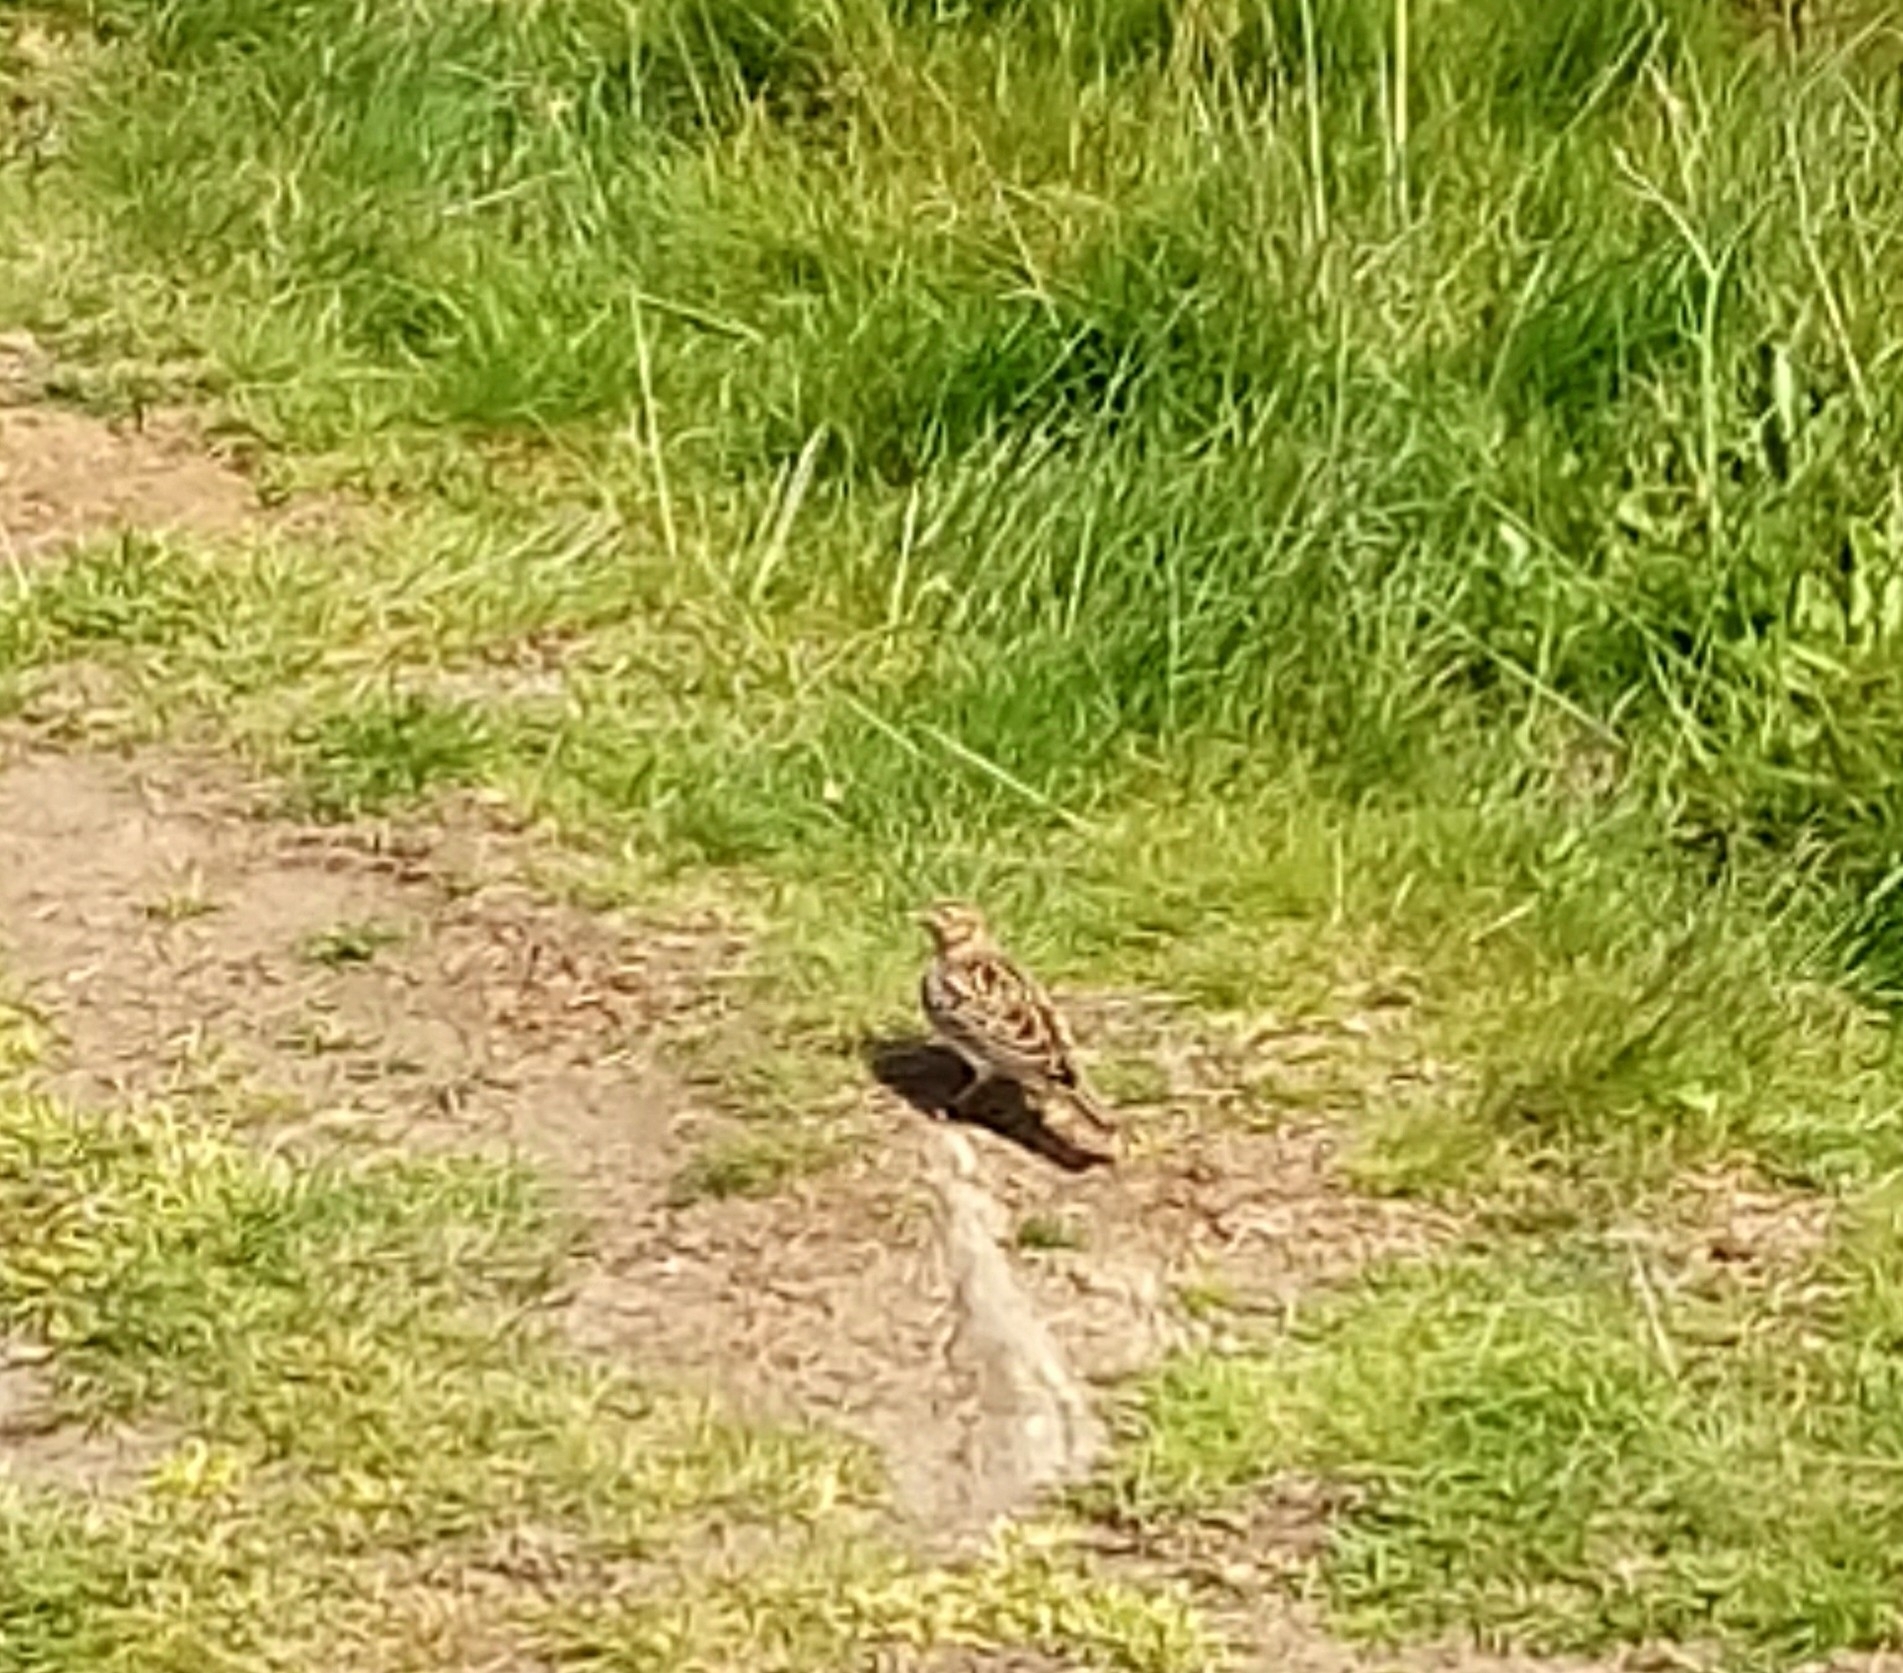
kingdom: Animalia
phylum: Chordata
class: Aves
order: Passeriformes
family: Alaudidae
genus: Alauda
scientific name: Alauda arvensis
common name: Eurasian skylark
